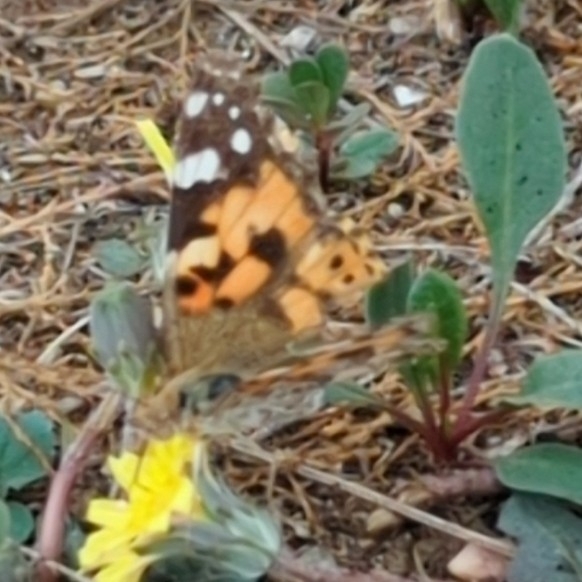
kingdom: Animalia
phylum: Arthropoda
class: Insecta
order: Lepidoptera
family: Nymphalidae
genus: Vanessa
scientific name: Vanessa cardui
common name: Painted lady
